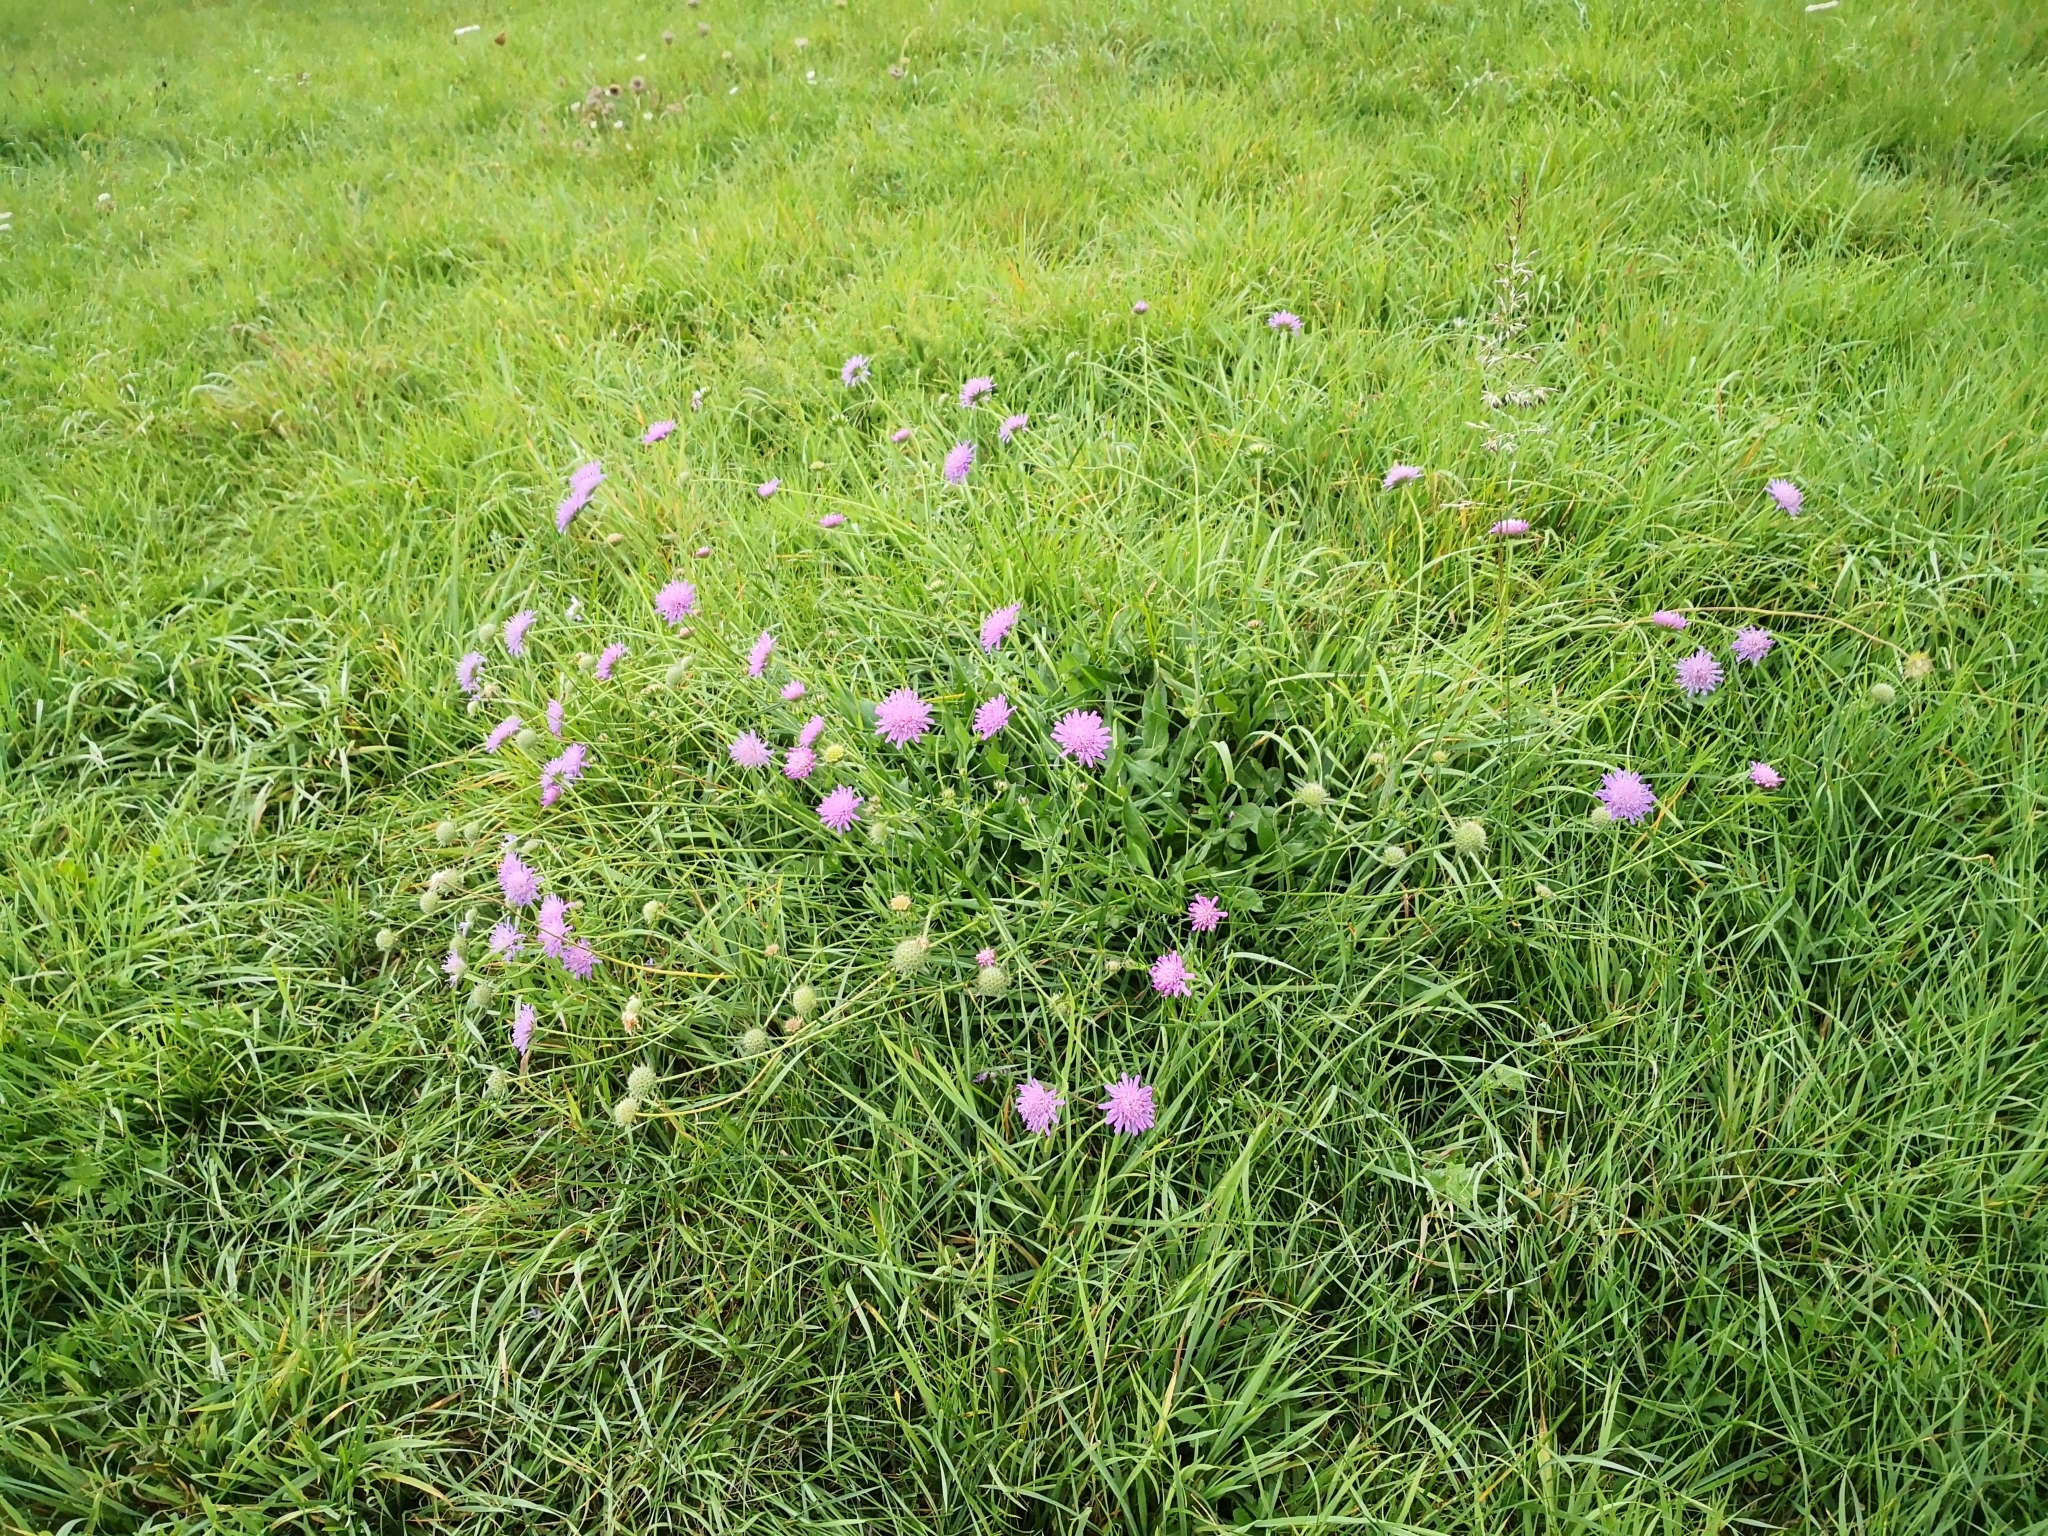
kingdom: Plantae
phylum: Tracheophyta
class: Magnoliopsida
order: Dipsacales
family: Caprifoliaceae
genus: Knautia
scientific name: Knautia arvensis
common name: Field scabiosa
